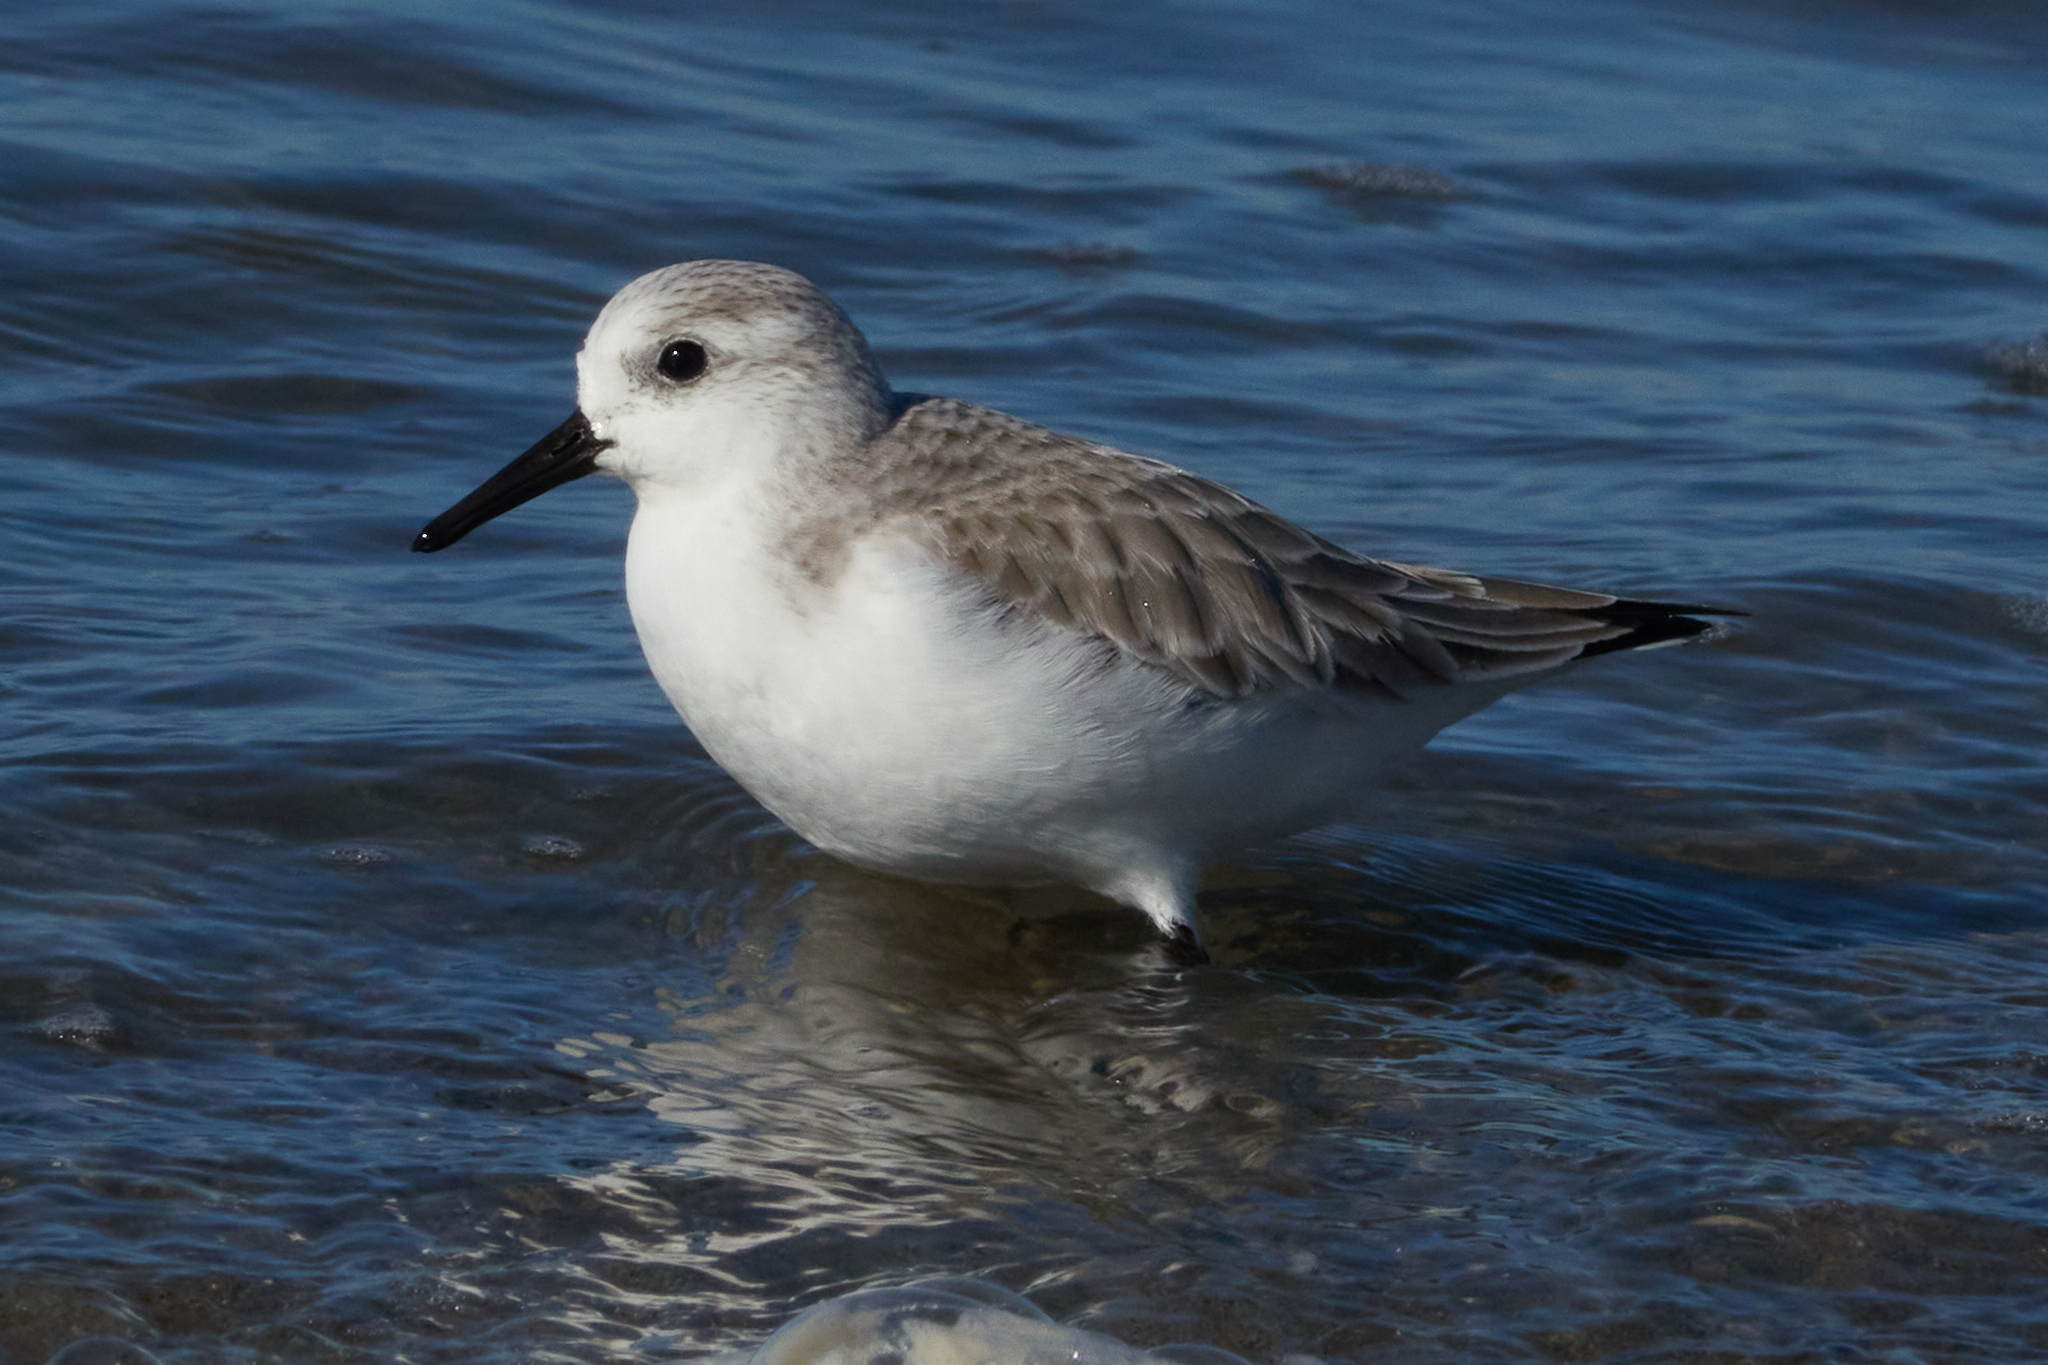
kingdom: Animalia
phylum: Chordata
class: Aves
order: Charadriiformes
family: Scolopacidae
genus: Calidris
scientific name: Calidris alba
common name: Sanderling
